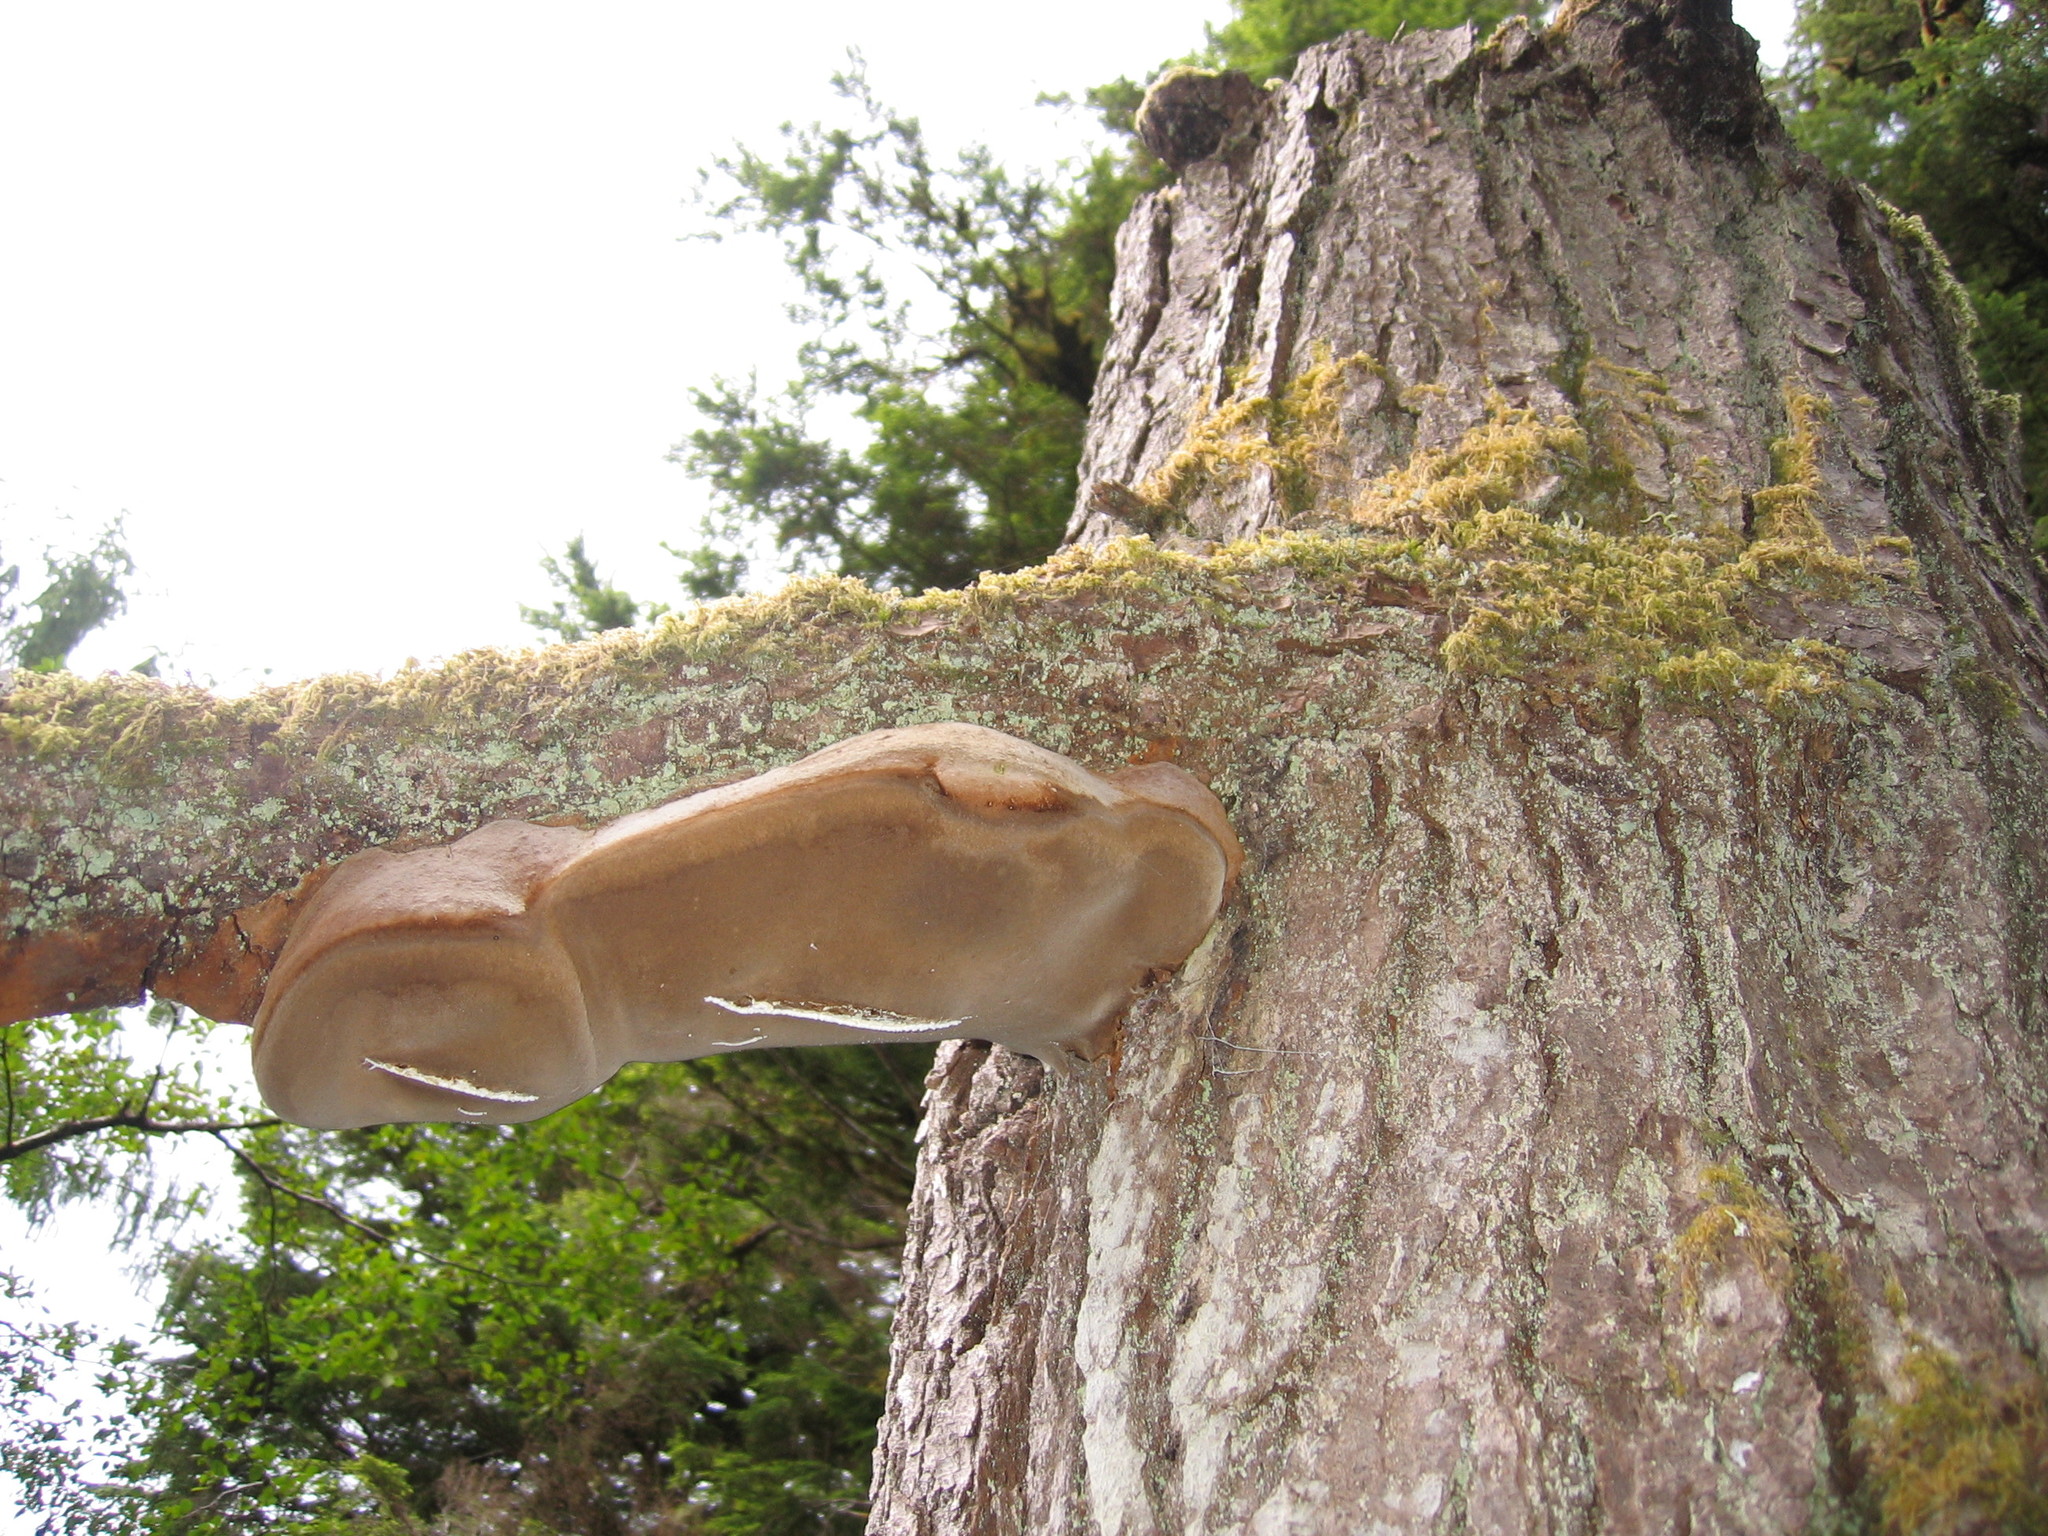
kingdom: Fungi
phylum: Basidiomycota
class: Agaricomycetes
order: Hymenochaetales
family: Hymenochaetaceae
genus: Fomitiporia
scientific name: Fomitiporia punctata
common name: Elbowpatch crust
